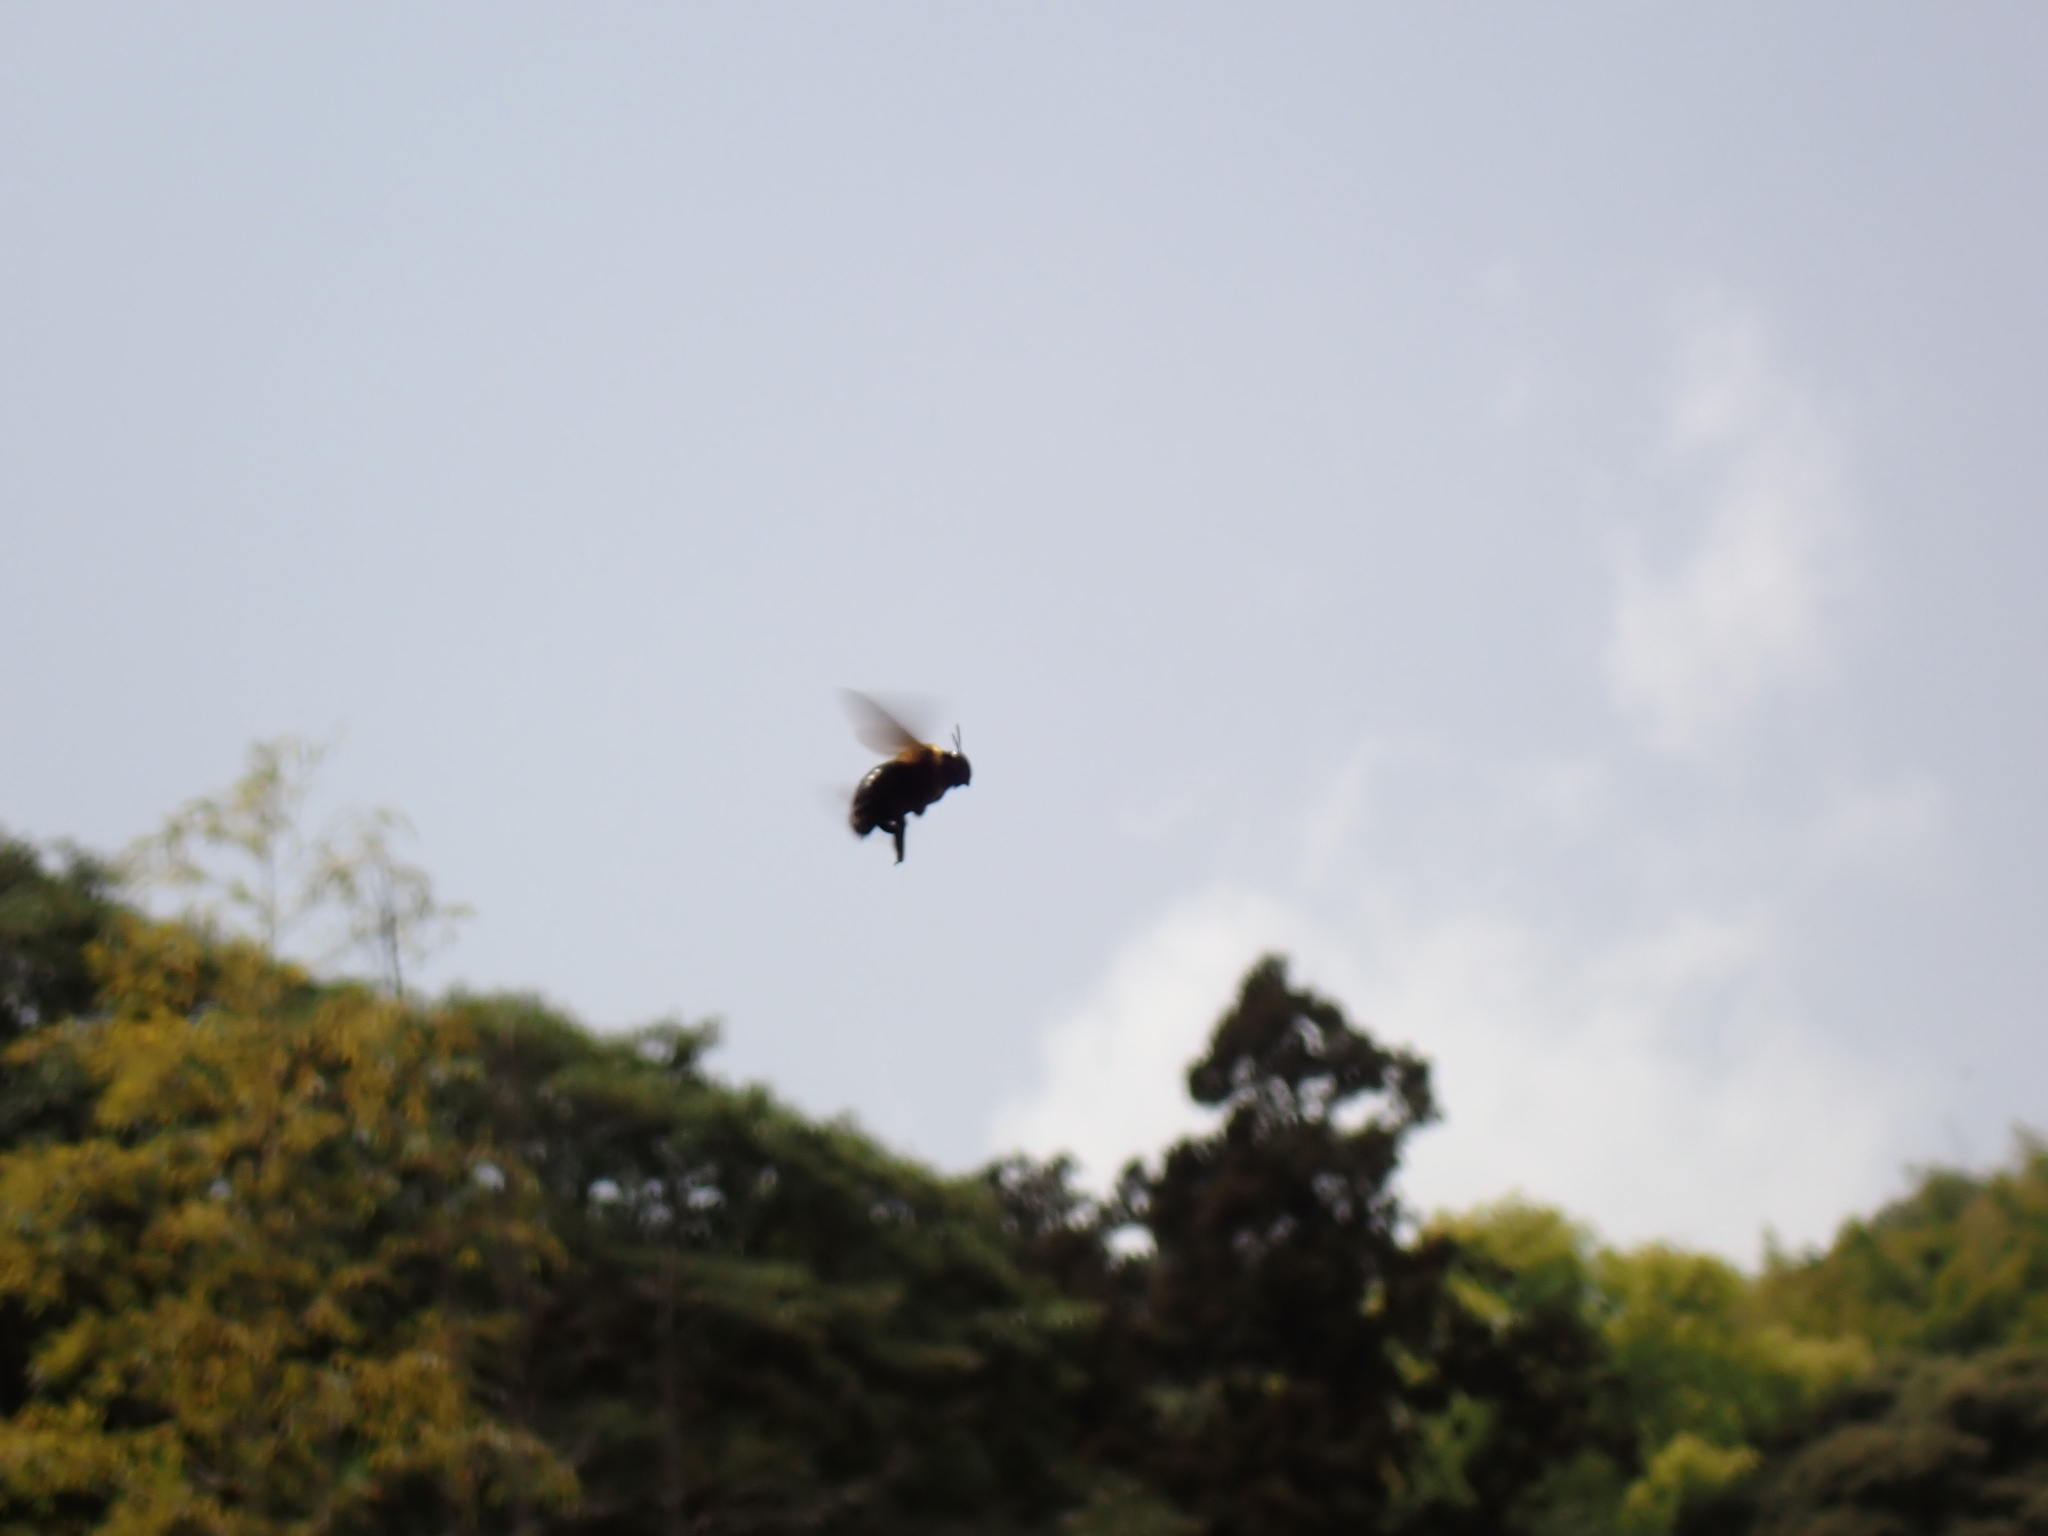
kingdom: Animalia
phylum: Arthropoda
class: Insecta
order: Hymenoptera
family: Apidae
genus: Xylocopa
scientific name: Xylocopa appendiculata
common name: Japanese carpenter bee
